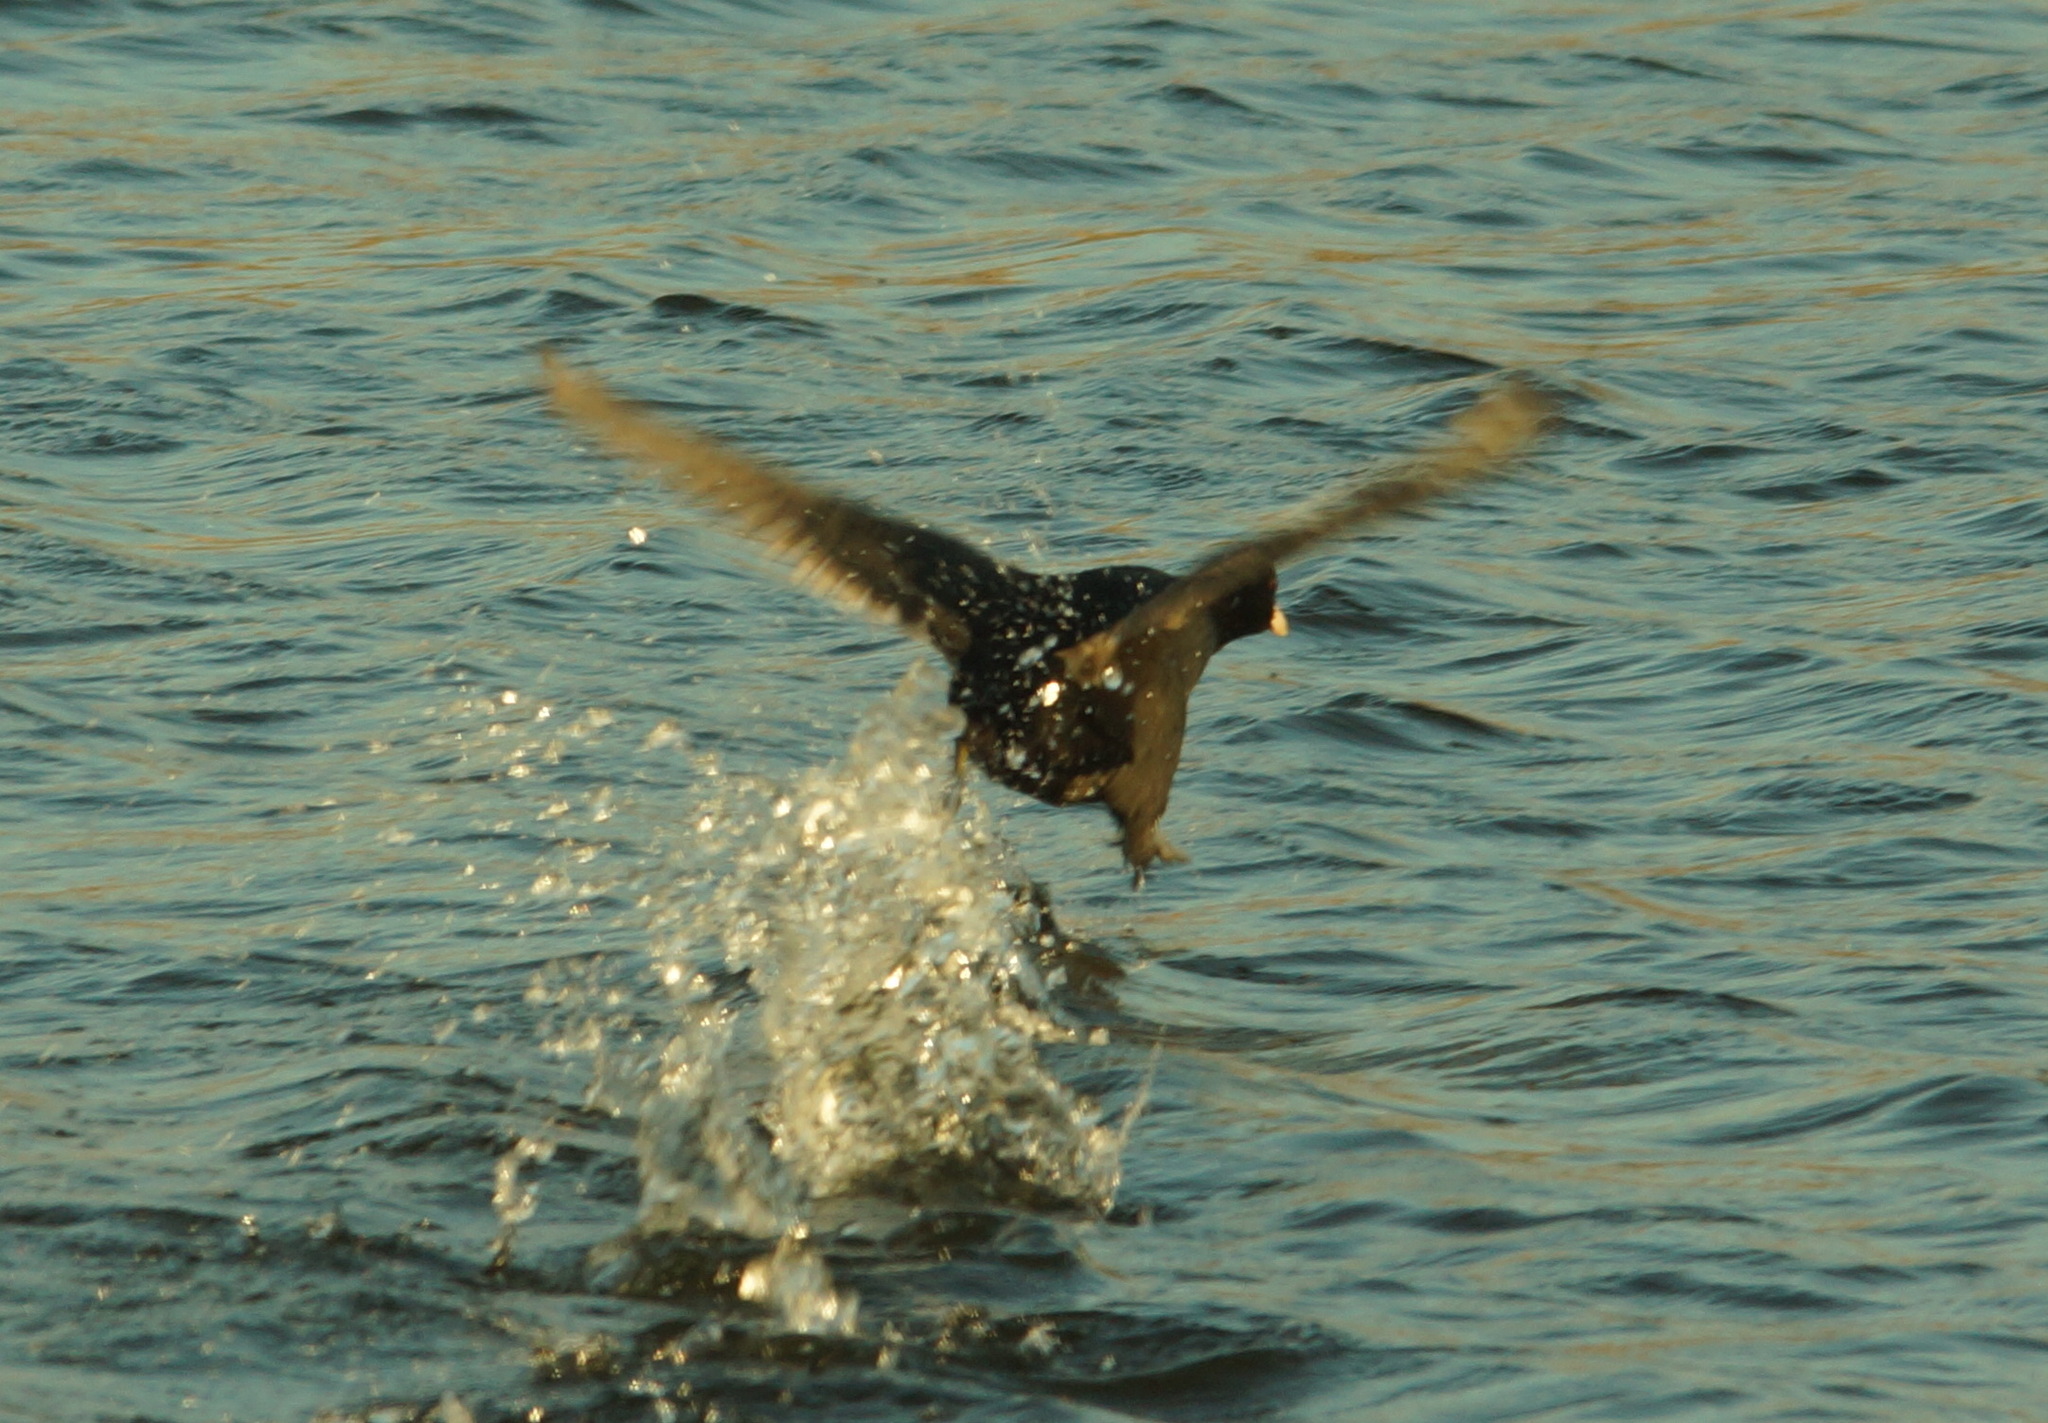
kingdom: Animalia
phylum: Chordata
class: Aves
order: Gruiformes
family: Rallidae
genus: Fulica
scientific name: Fulica atra
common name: Eurasian coot
